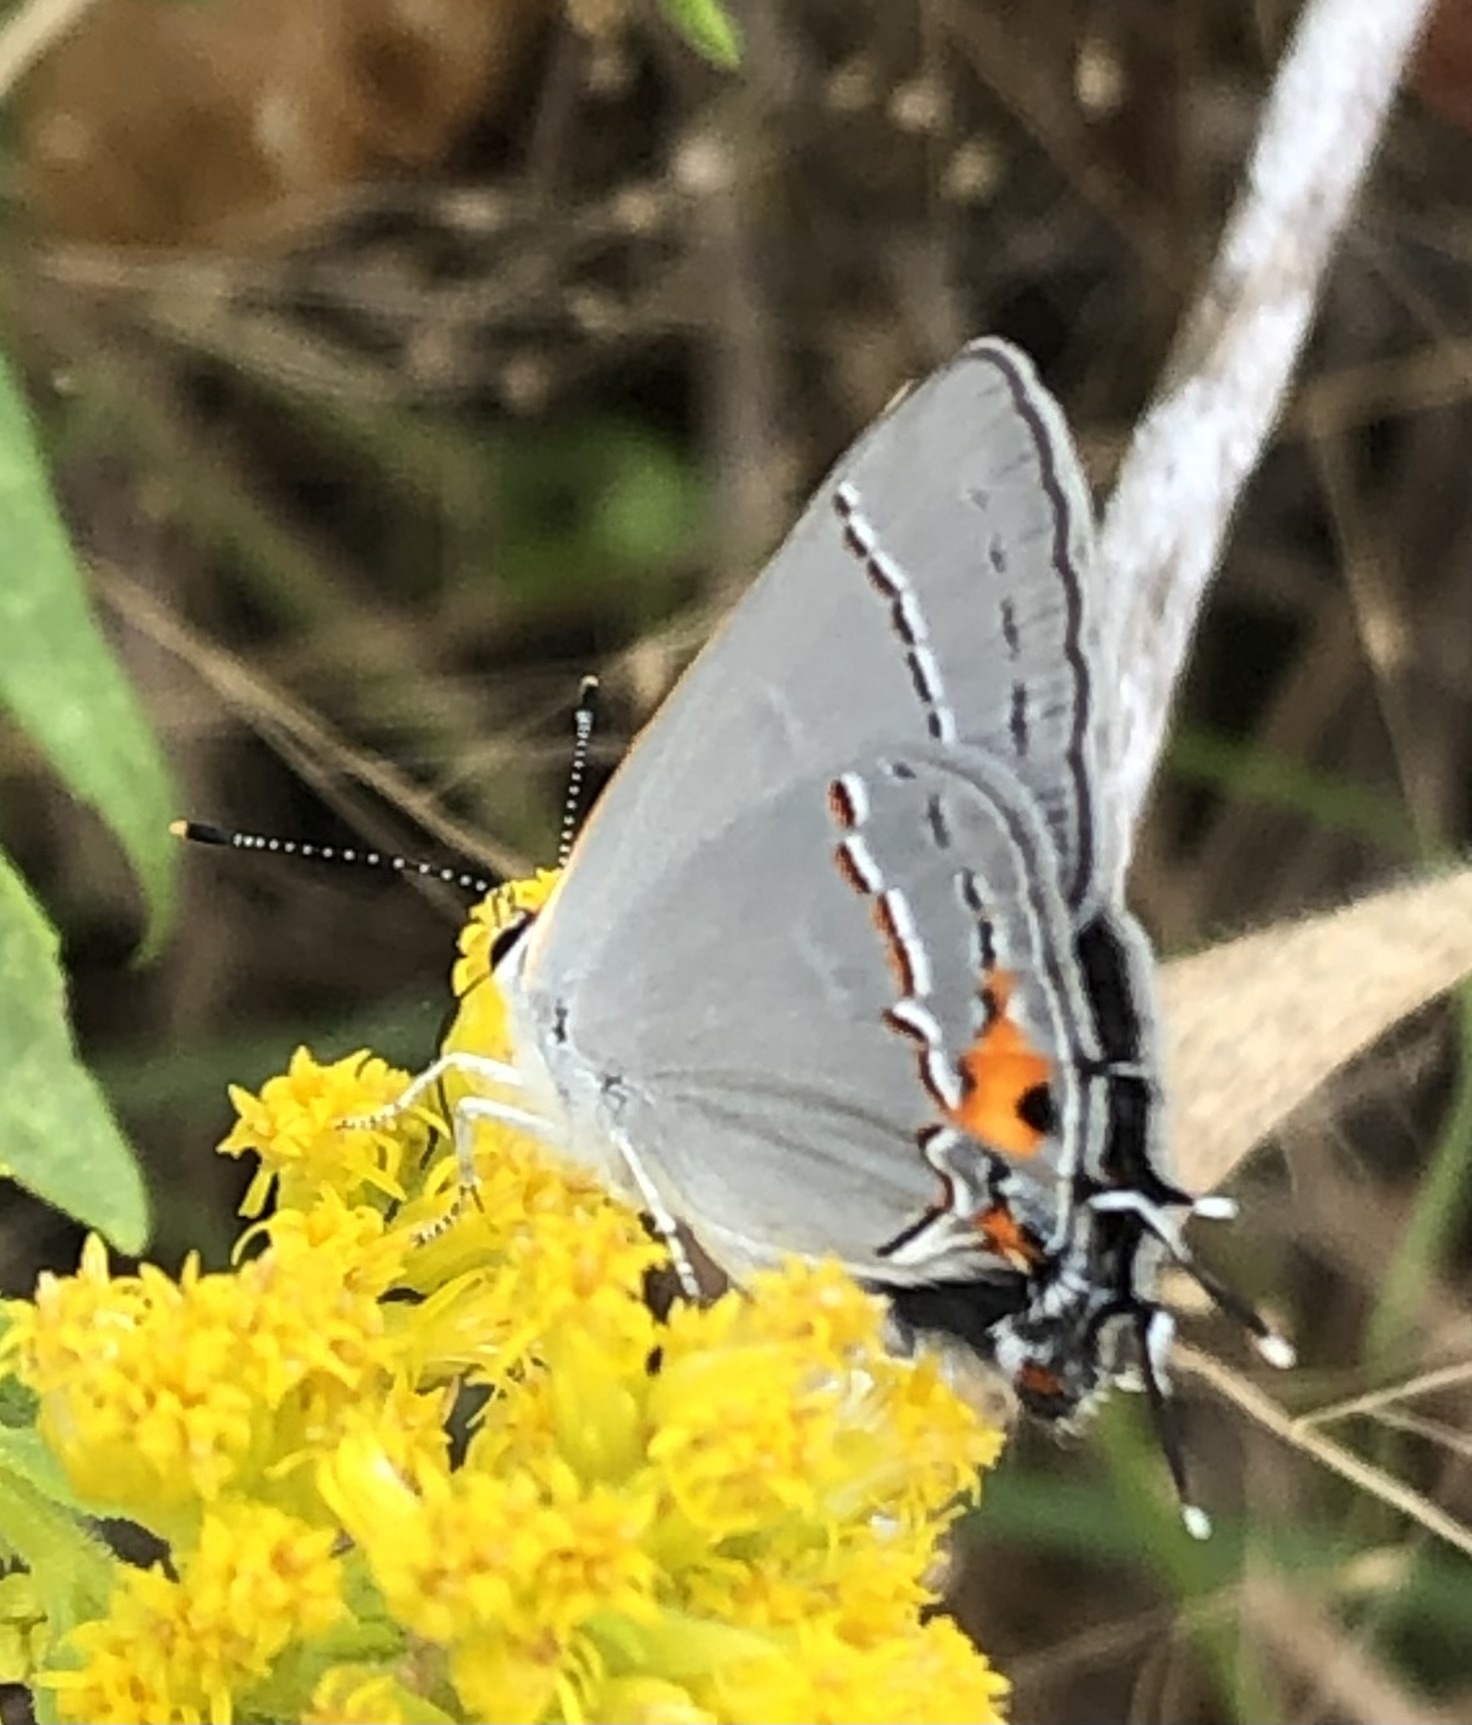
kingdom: Animalia
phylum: Arthropoda
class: Insecta
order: Lepidoptera
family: Lycaenidae
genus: Strymon
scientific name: Strymon melinus
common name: Gray hairstreak
